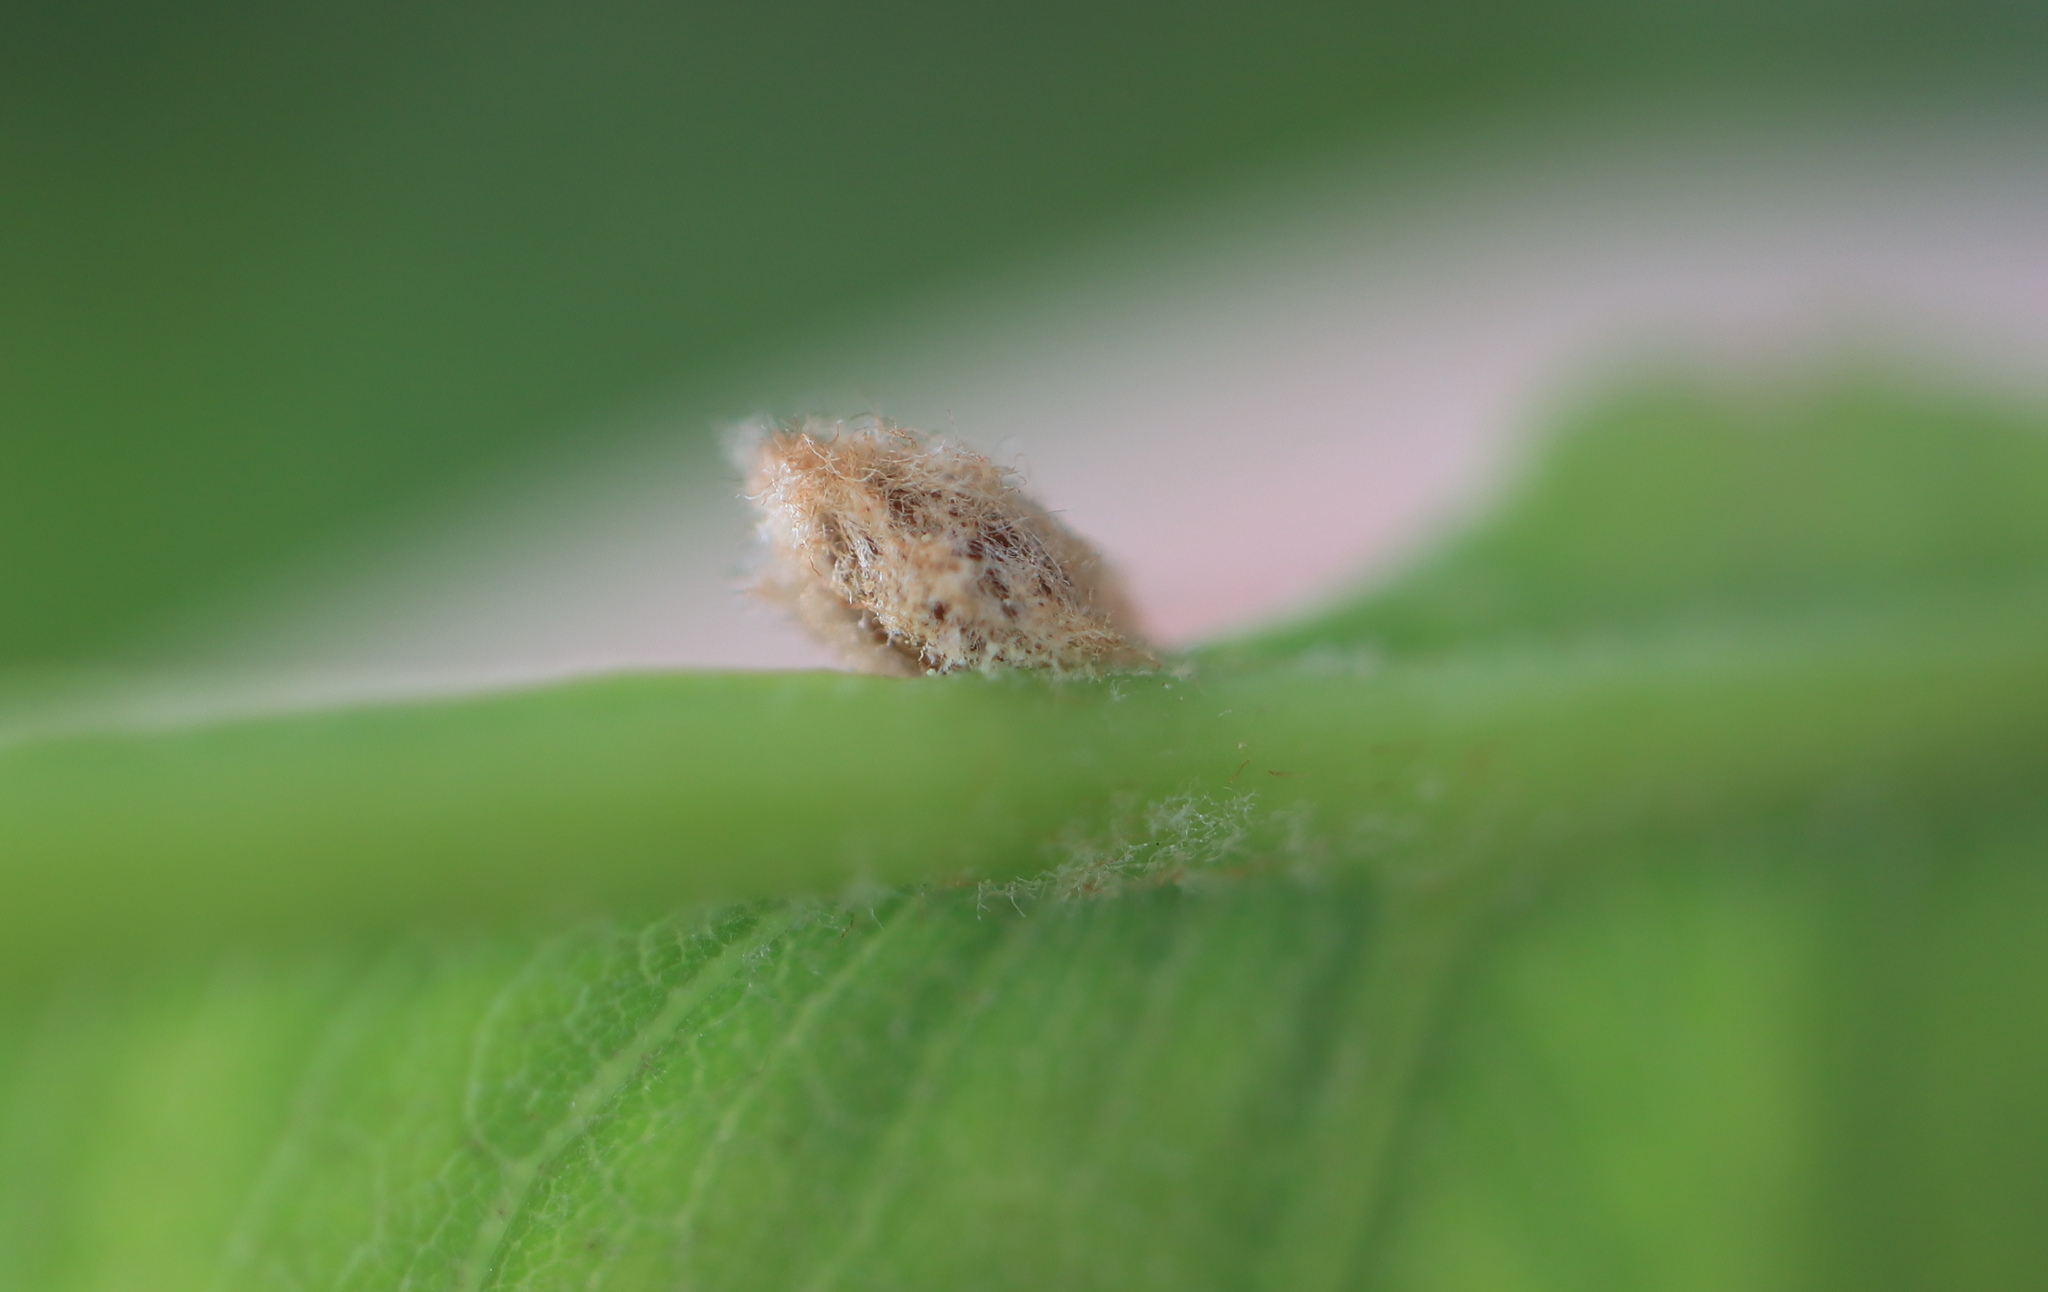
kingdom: Animalia
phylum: Arthropoda
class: Insecta
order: Hymenoptera
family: Cynipidae
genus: Neuroterus
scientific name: Neuroterus
